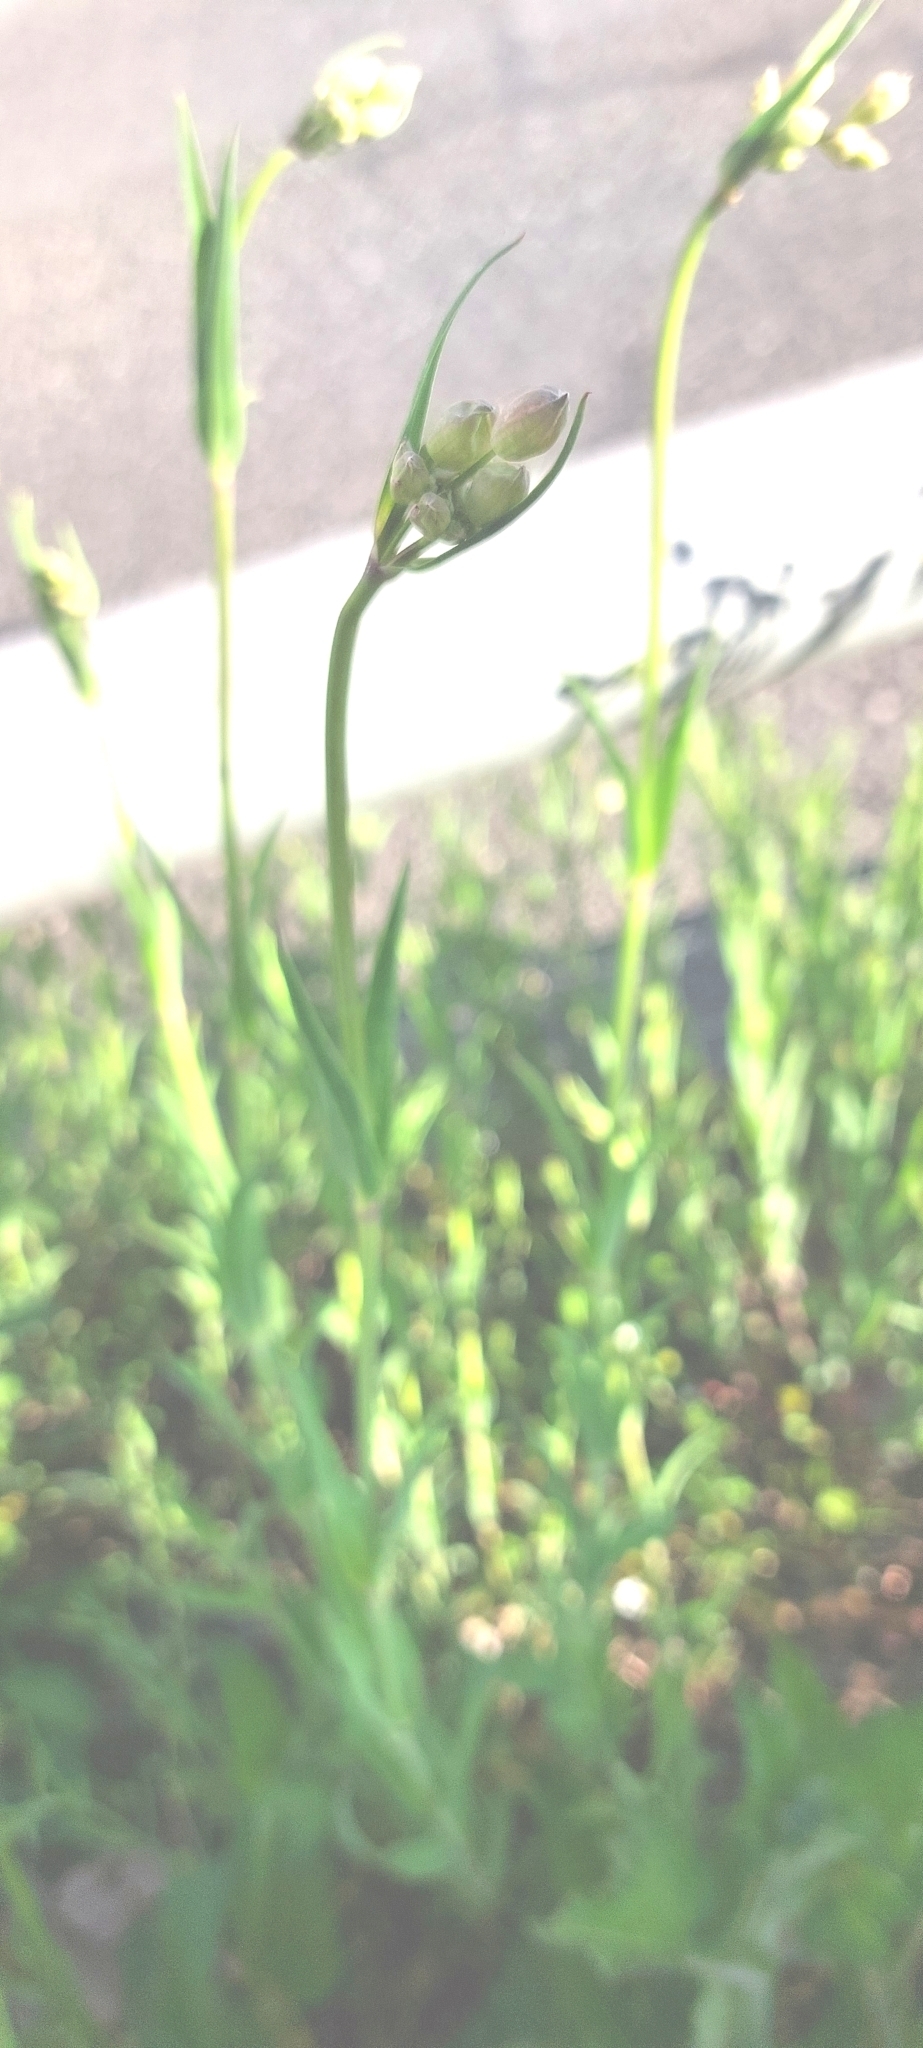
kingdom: Plantae
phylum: Tracheophyta
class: Magnoliopsida
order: Caryophyllales
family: Caryophyllaceae
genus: Silene
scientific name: Silene vulgaris
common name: Bladder campion
